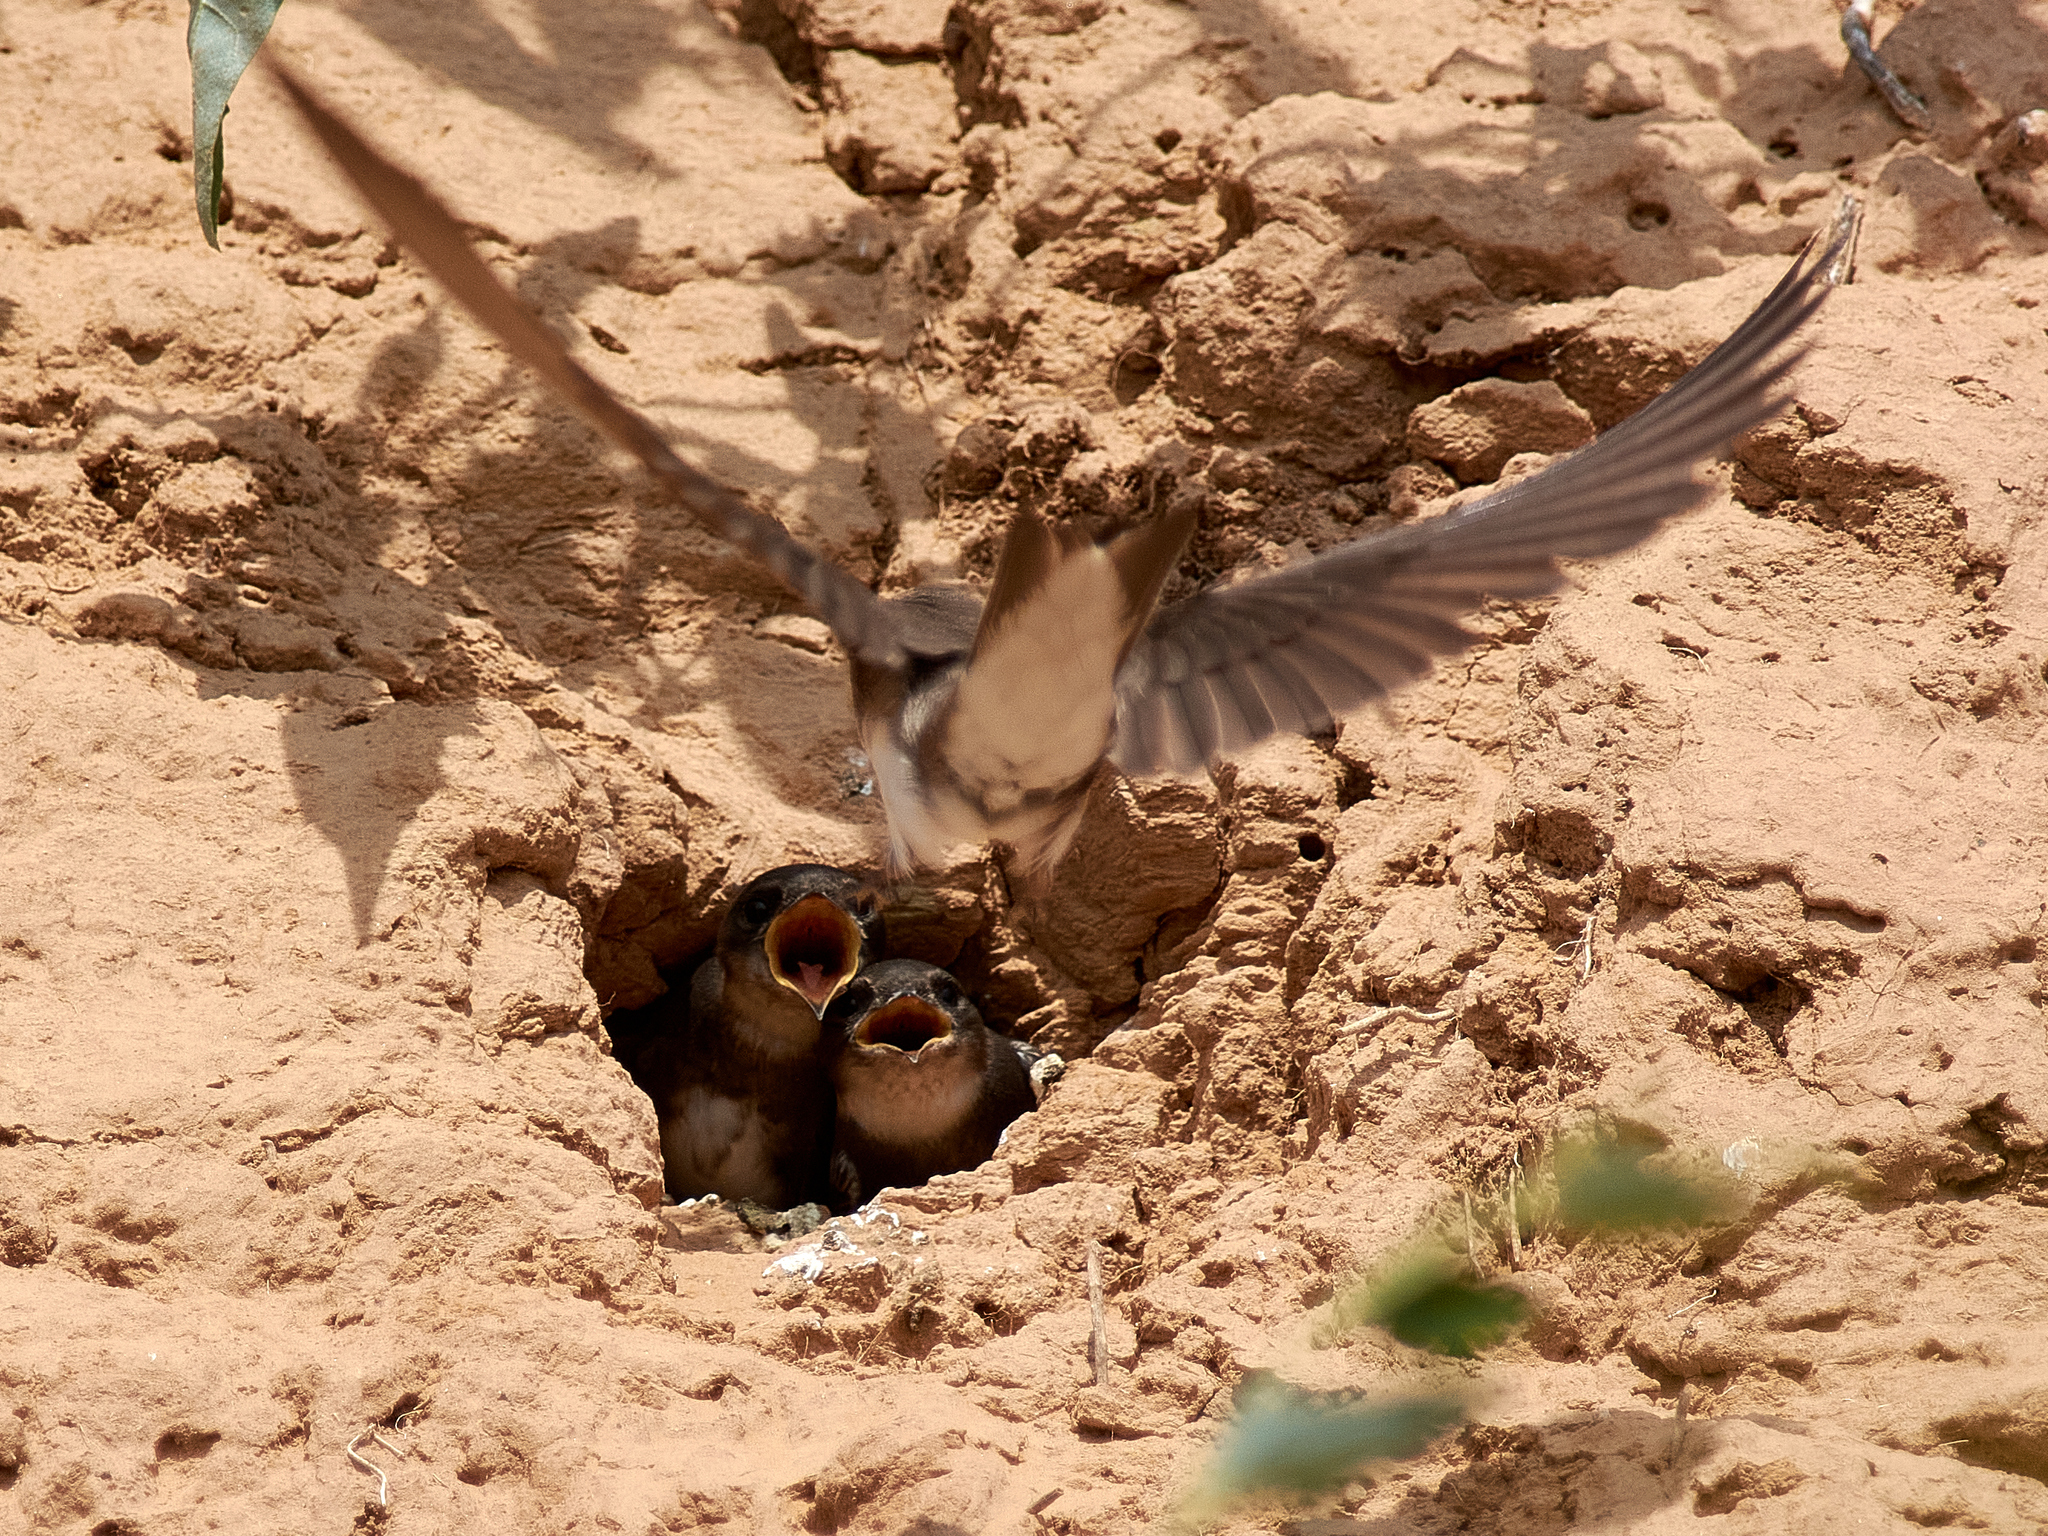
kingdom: Animalia
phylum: Chordata
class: Aves
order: Passeriformes
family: Hirundinidae
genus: Riparia
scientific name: Riparia riparia
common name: Sand martin
